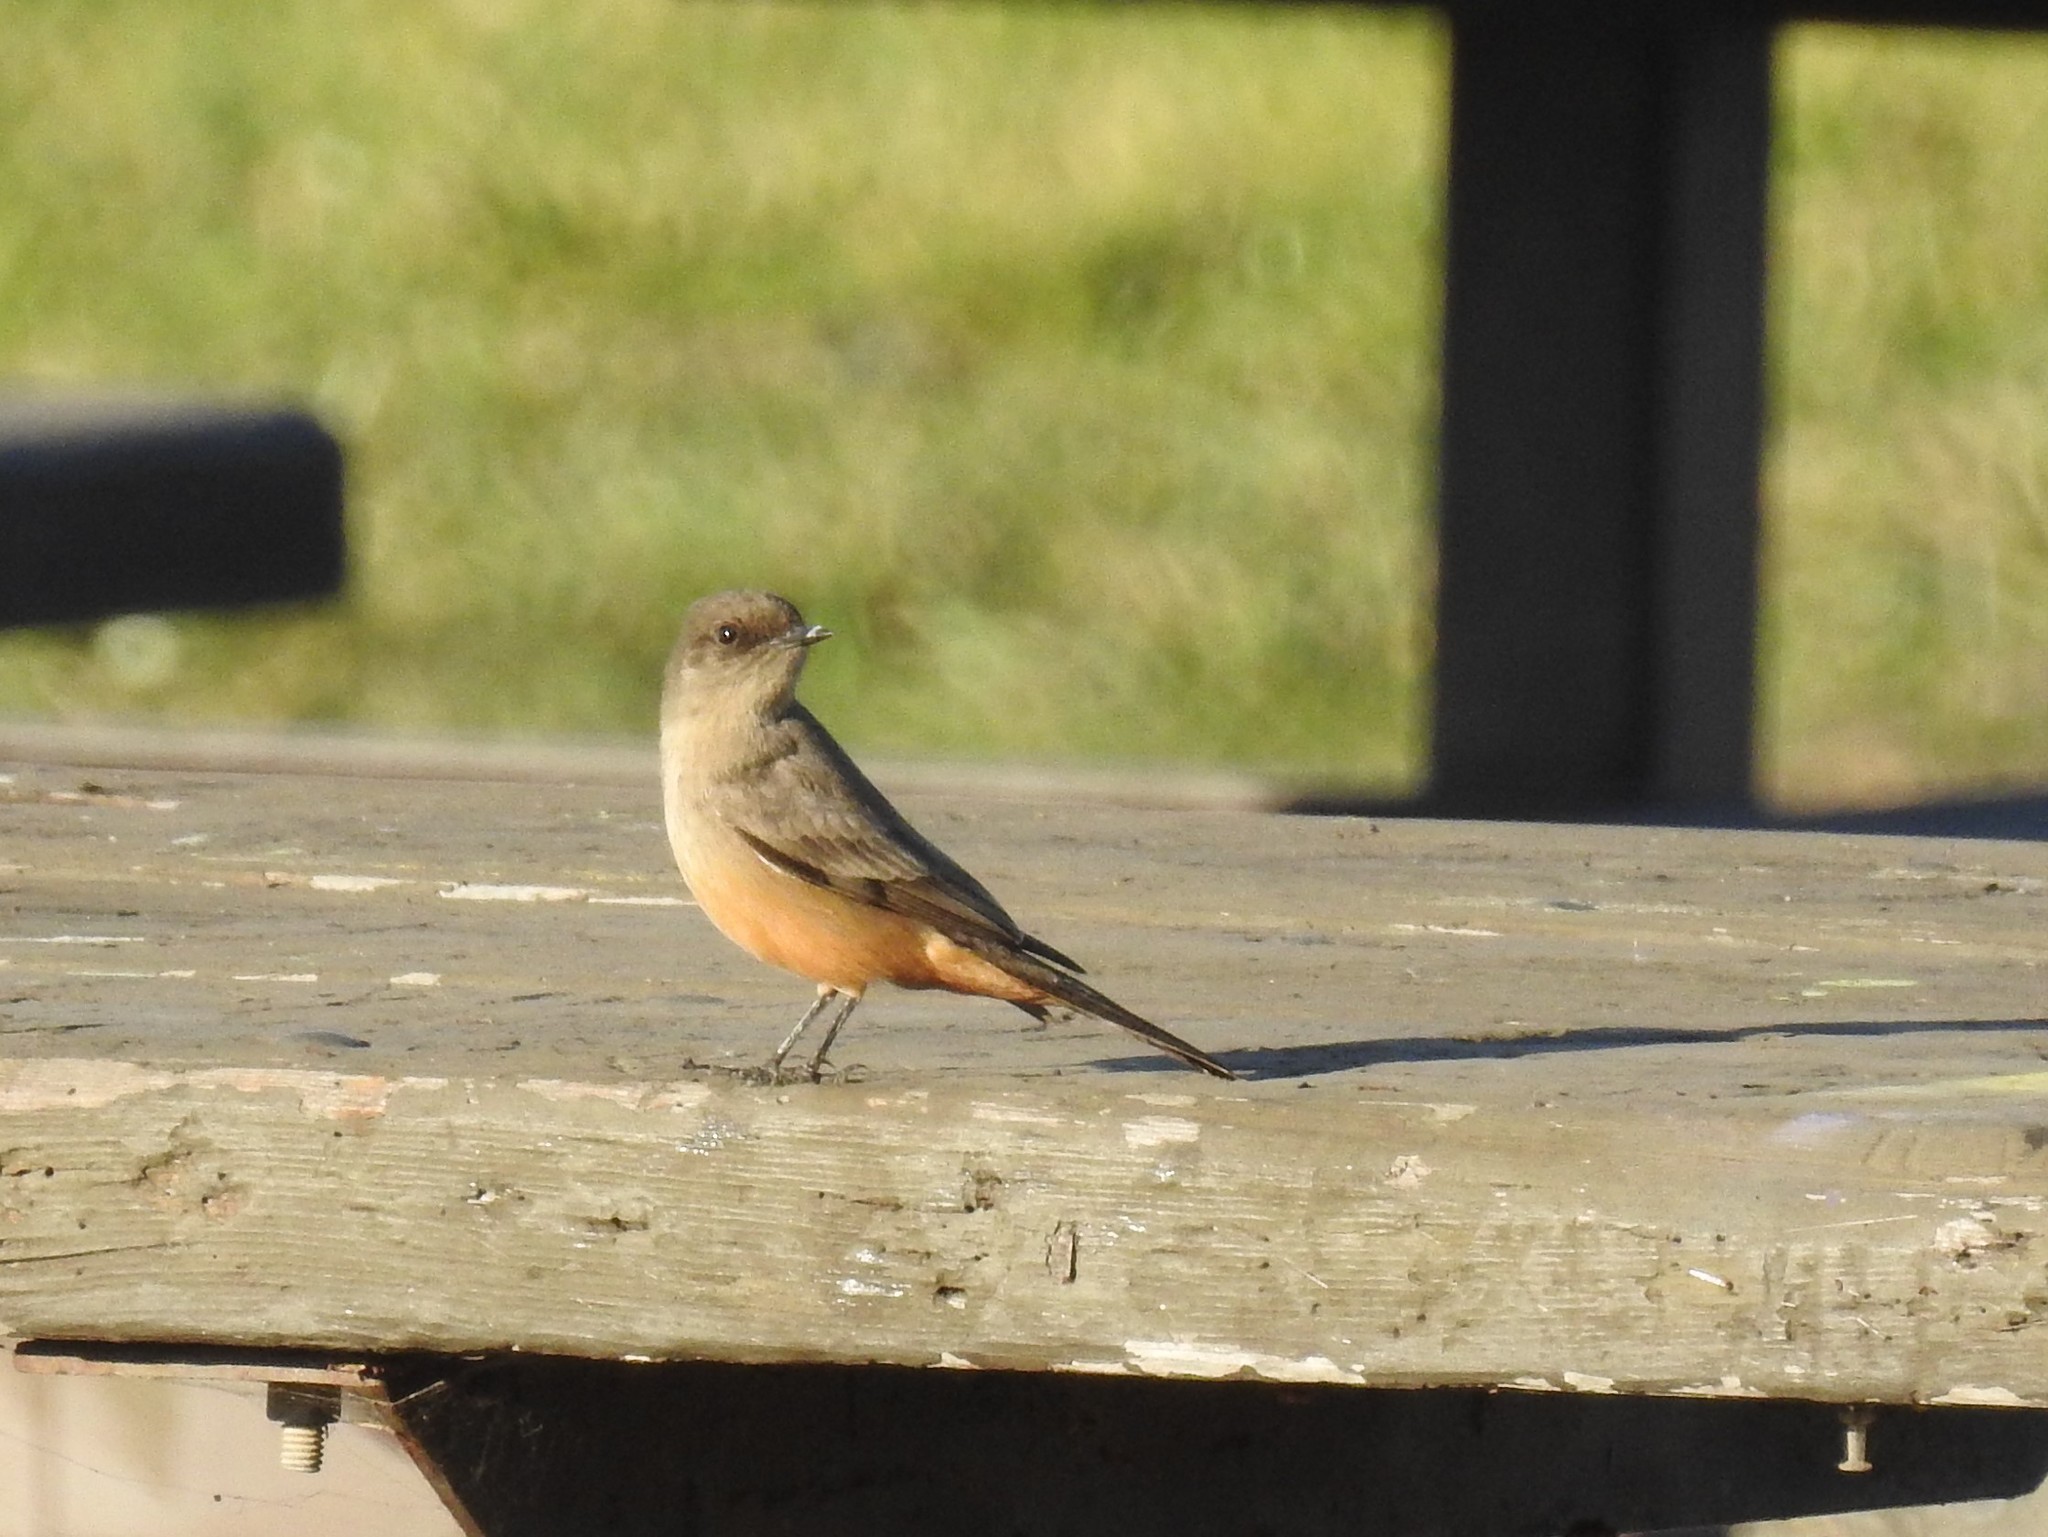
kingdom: Animalia
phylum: Chordata
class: Aves
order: Passeriformes
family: Tyrannidae
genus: Sayornis
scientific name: Sayornis saya
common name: Say's phoebe
